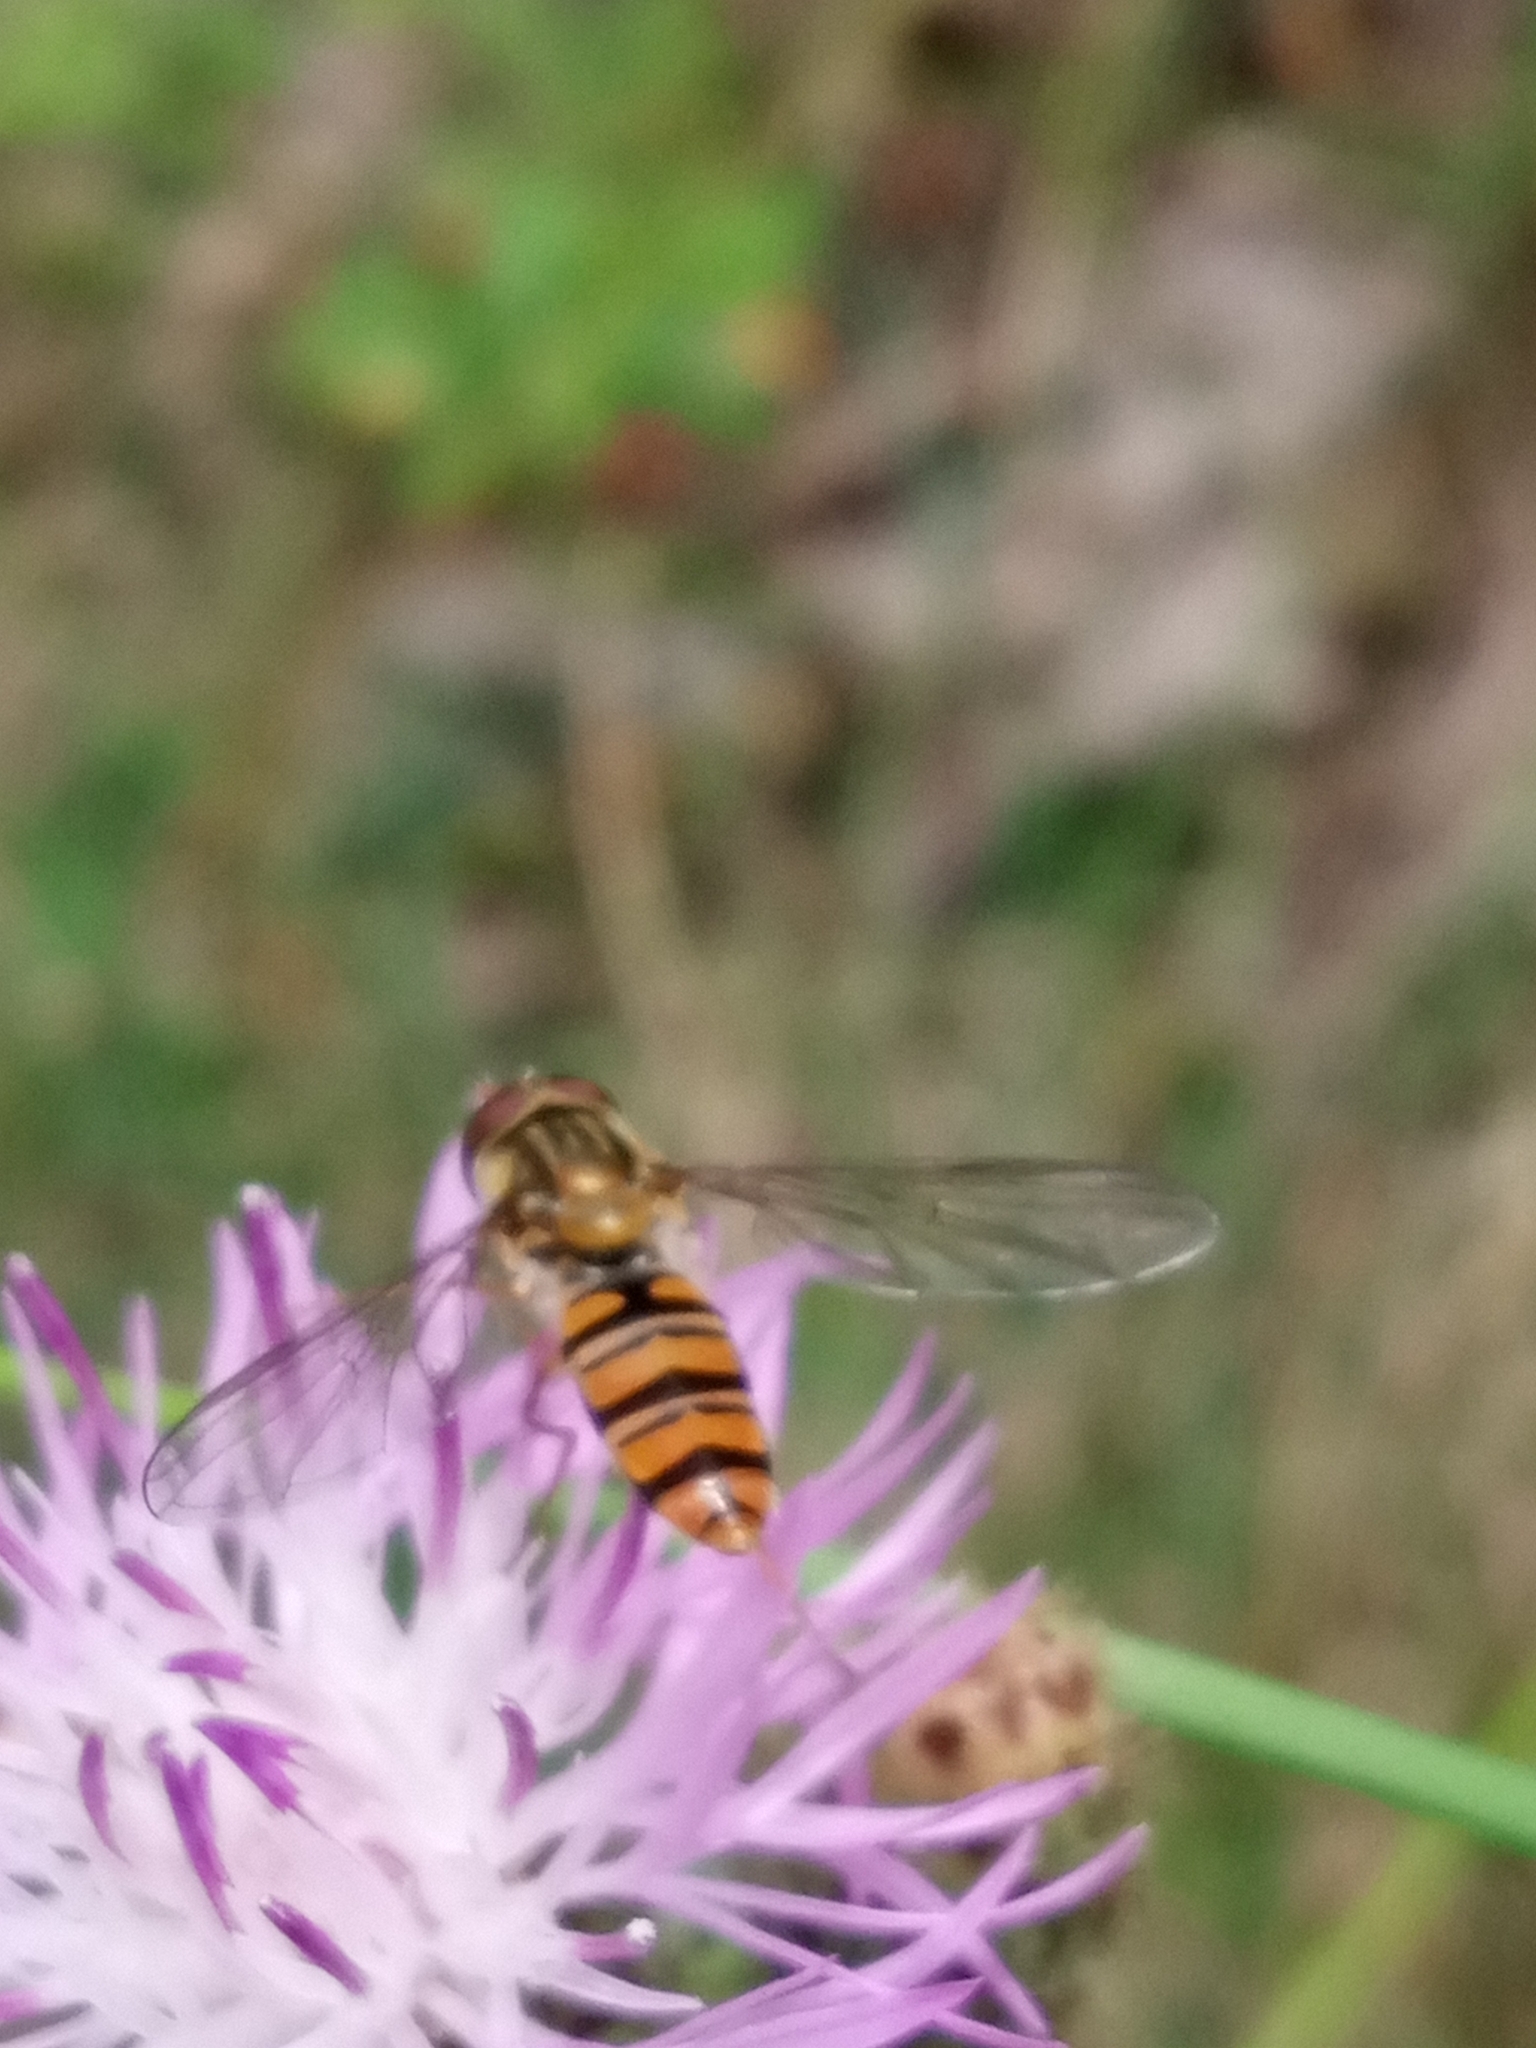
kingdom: Animalia
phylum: Arthropoda
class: Insecta
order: Diptera
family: Syrphidae
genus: Episyrphus
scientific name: Episyrphus balteatus
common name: Marmalade hoverfly
